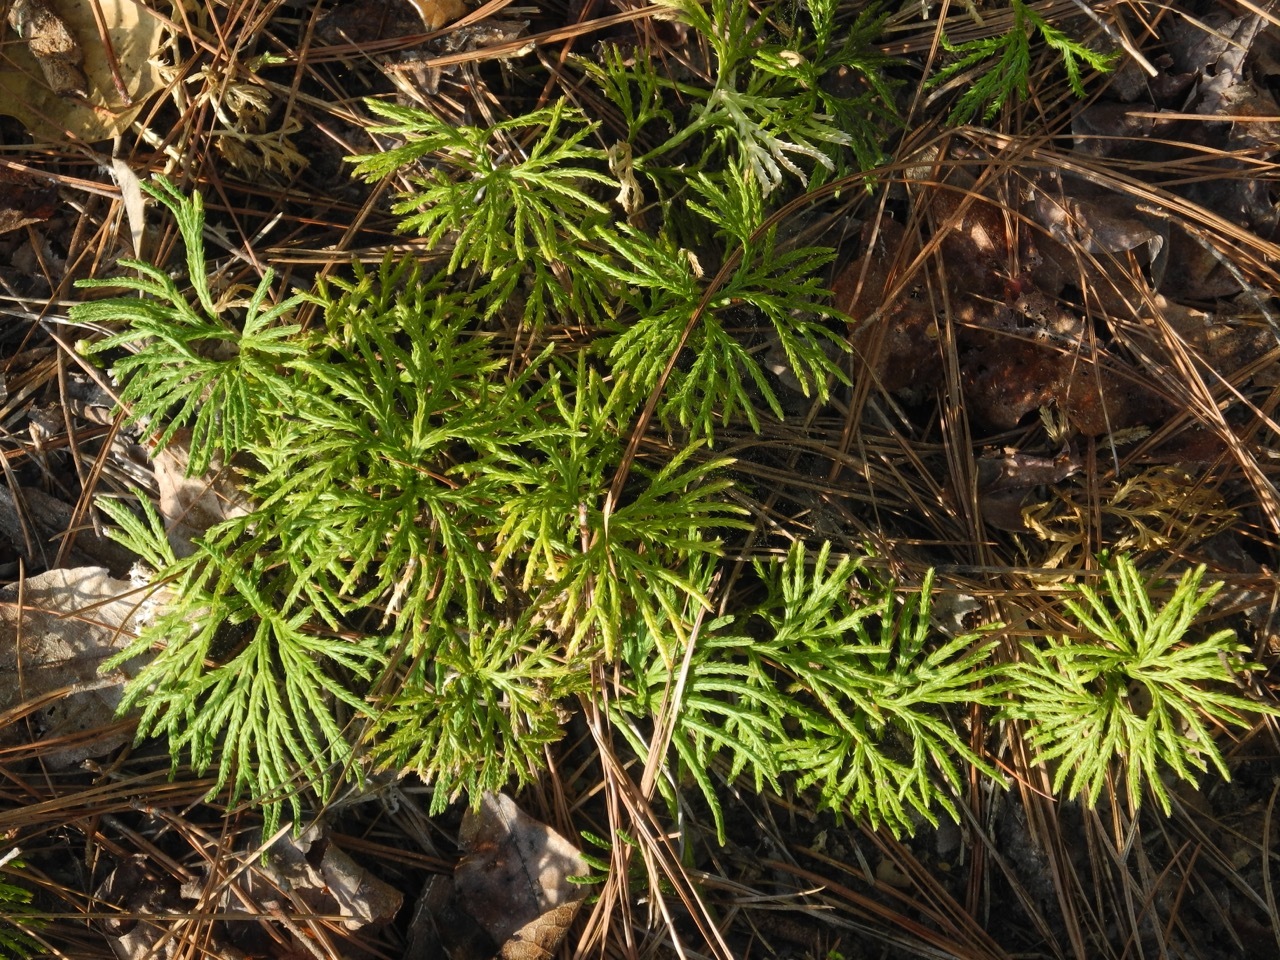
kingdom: Plantae
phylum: Tracheophyta
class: Lycopodiopsida
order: Lycopodiales
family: Lycopodiaceae
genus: Diphasiastrum
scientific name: Diphasiastrum digitatum
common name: Southern running-pine
